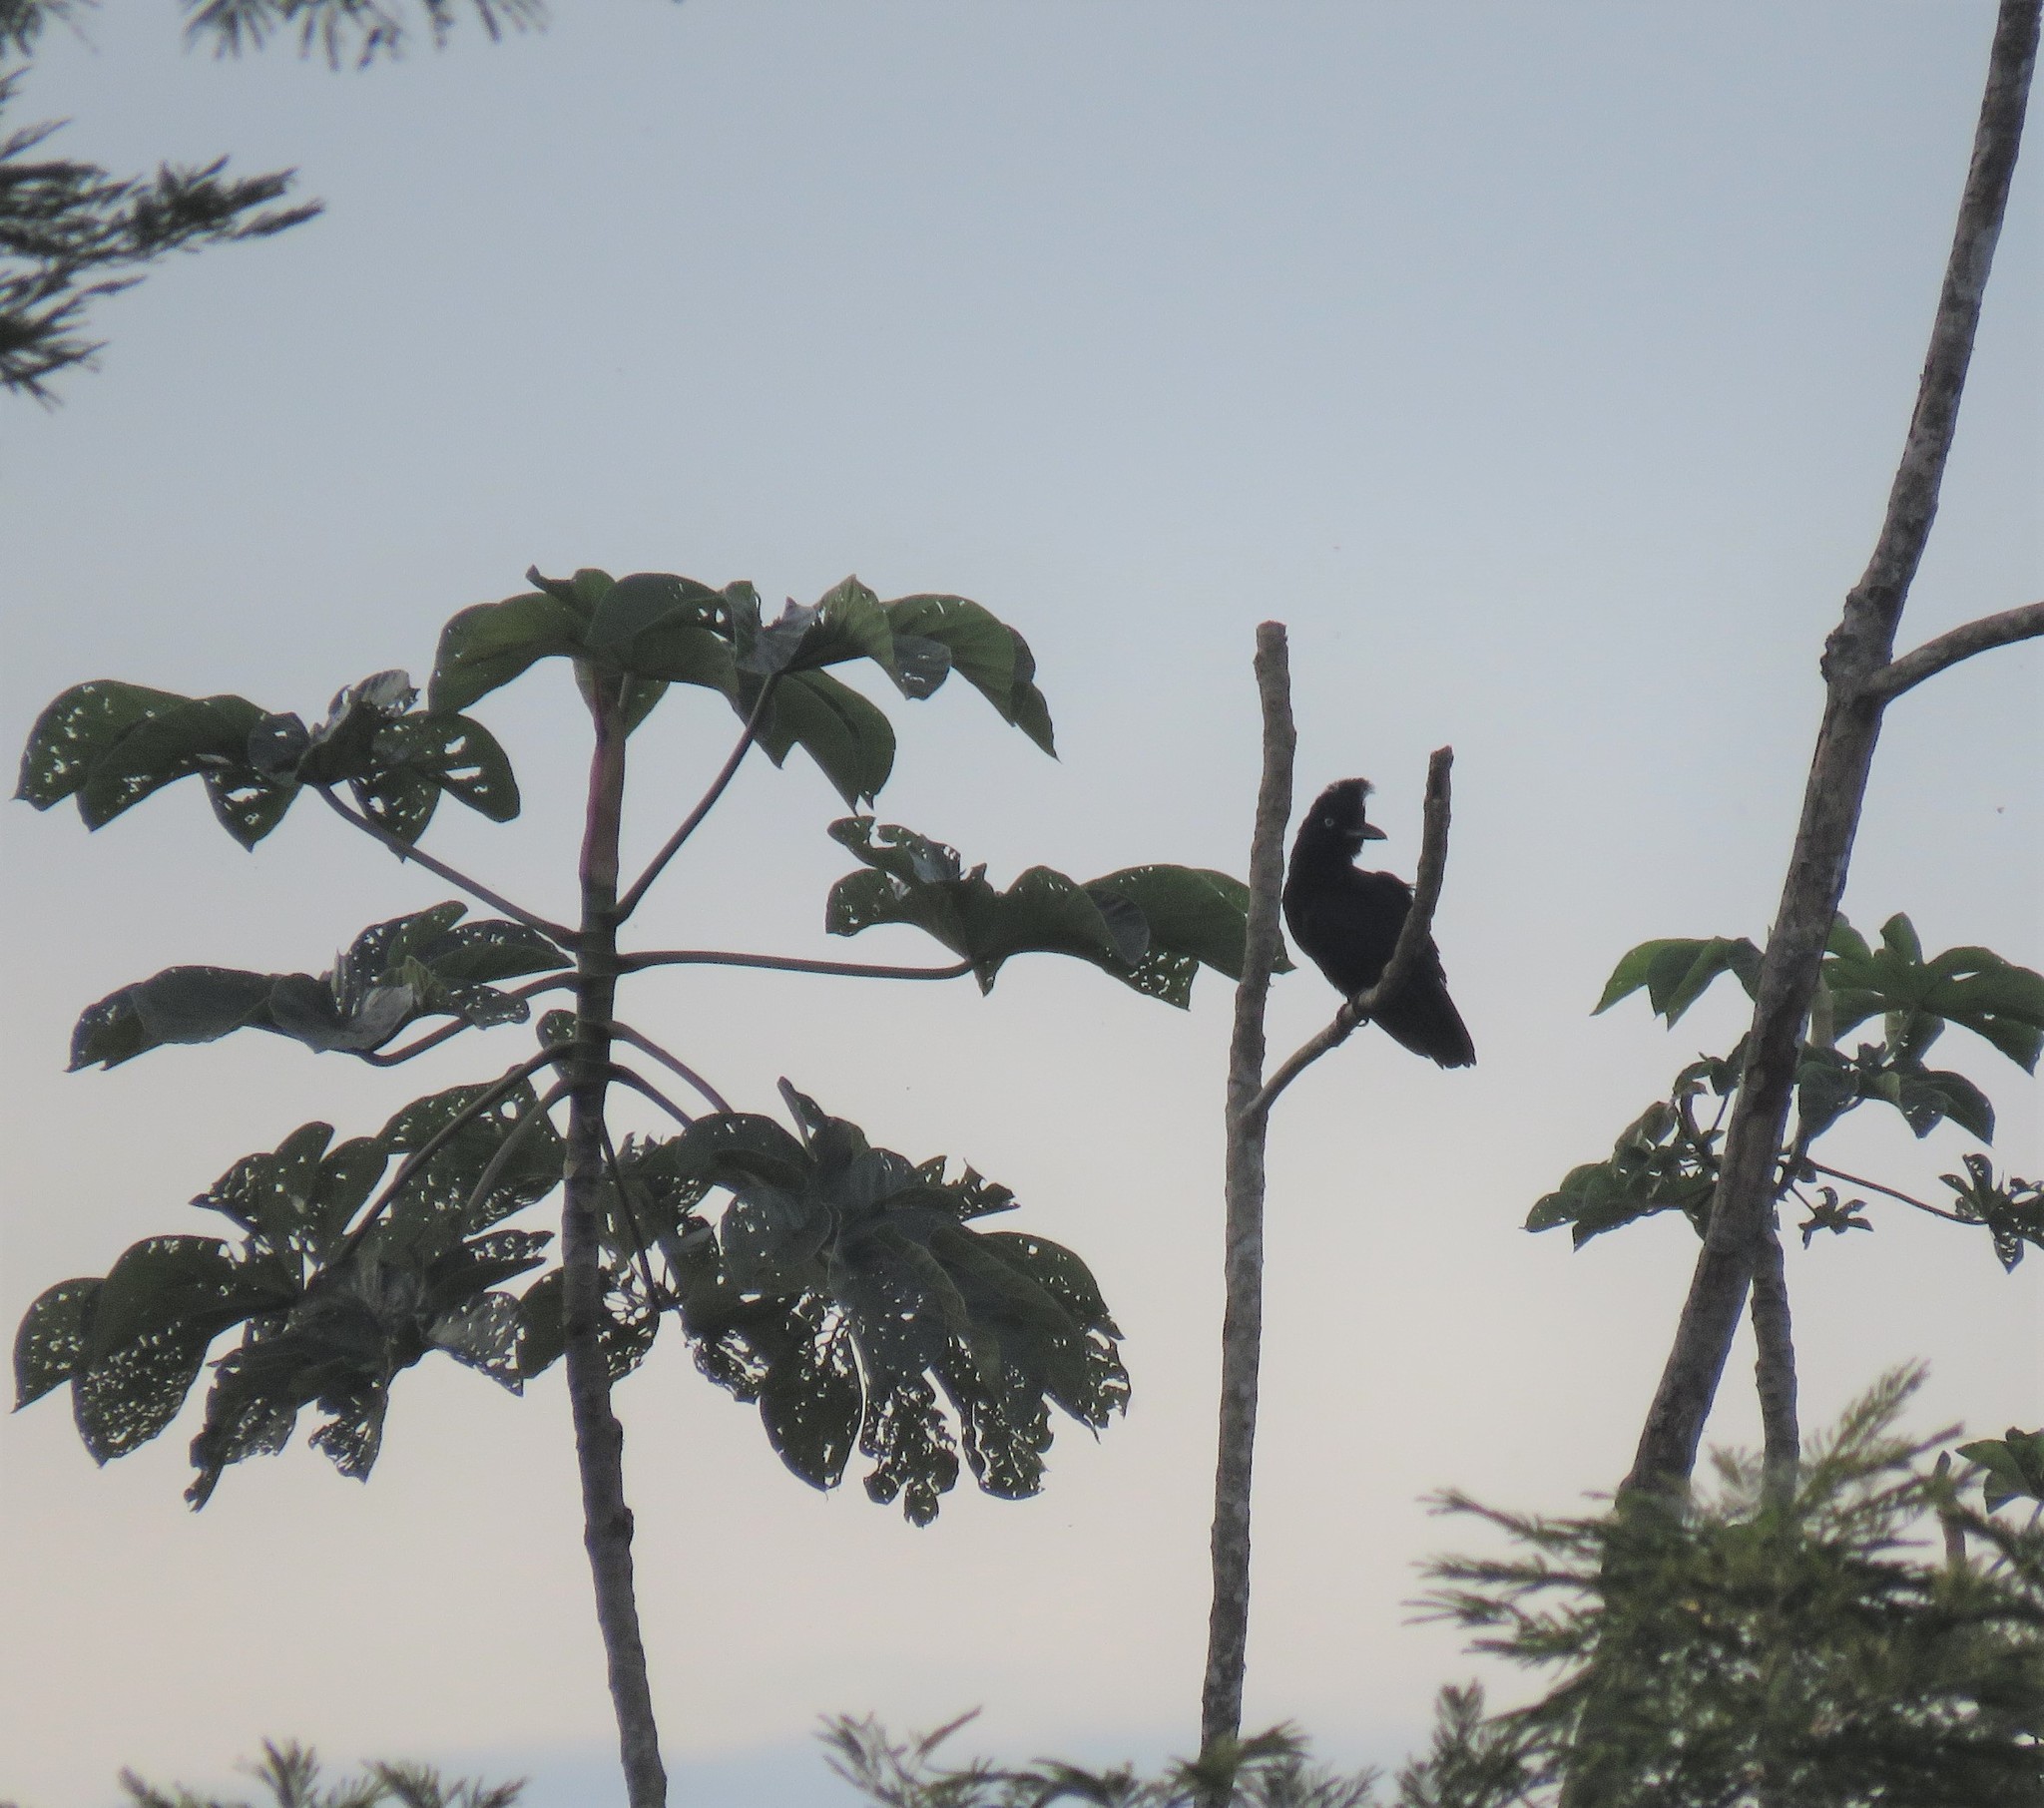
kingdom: Animalia
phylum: Chordata
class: Aves
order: Passeriformes
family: Cotingidae
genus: Cephalopterus
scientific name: Cephalopterus ornatus
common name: Amazonian umbrellabird
